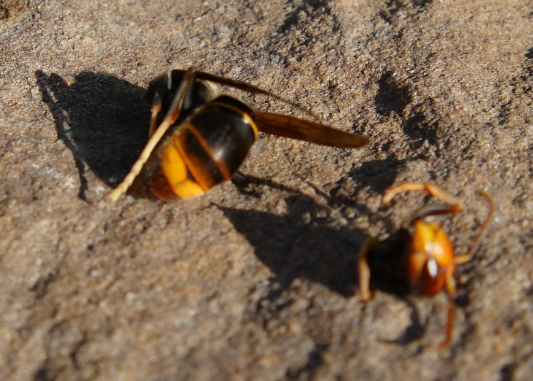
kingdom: Animalia
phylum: Arthropoda
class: Insecta
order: Hymenoptera
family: Vespidae
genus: Vespa
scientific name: Vespa velutina
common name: Asian hornet
